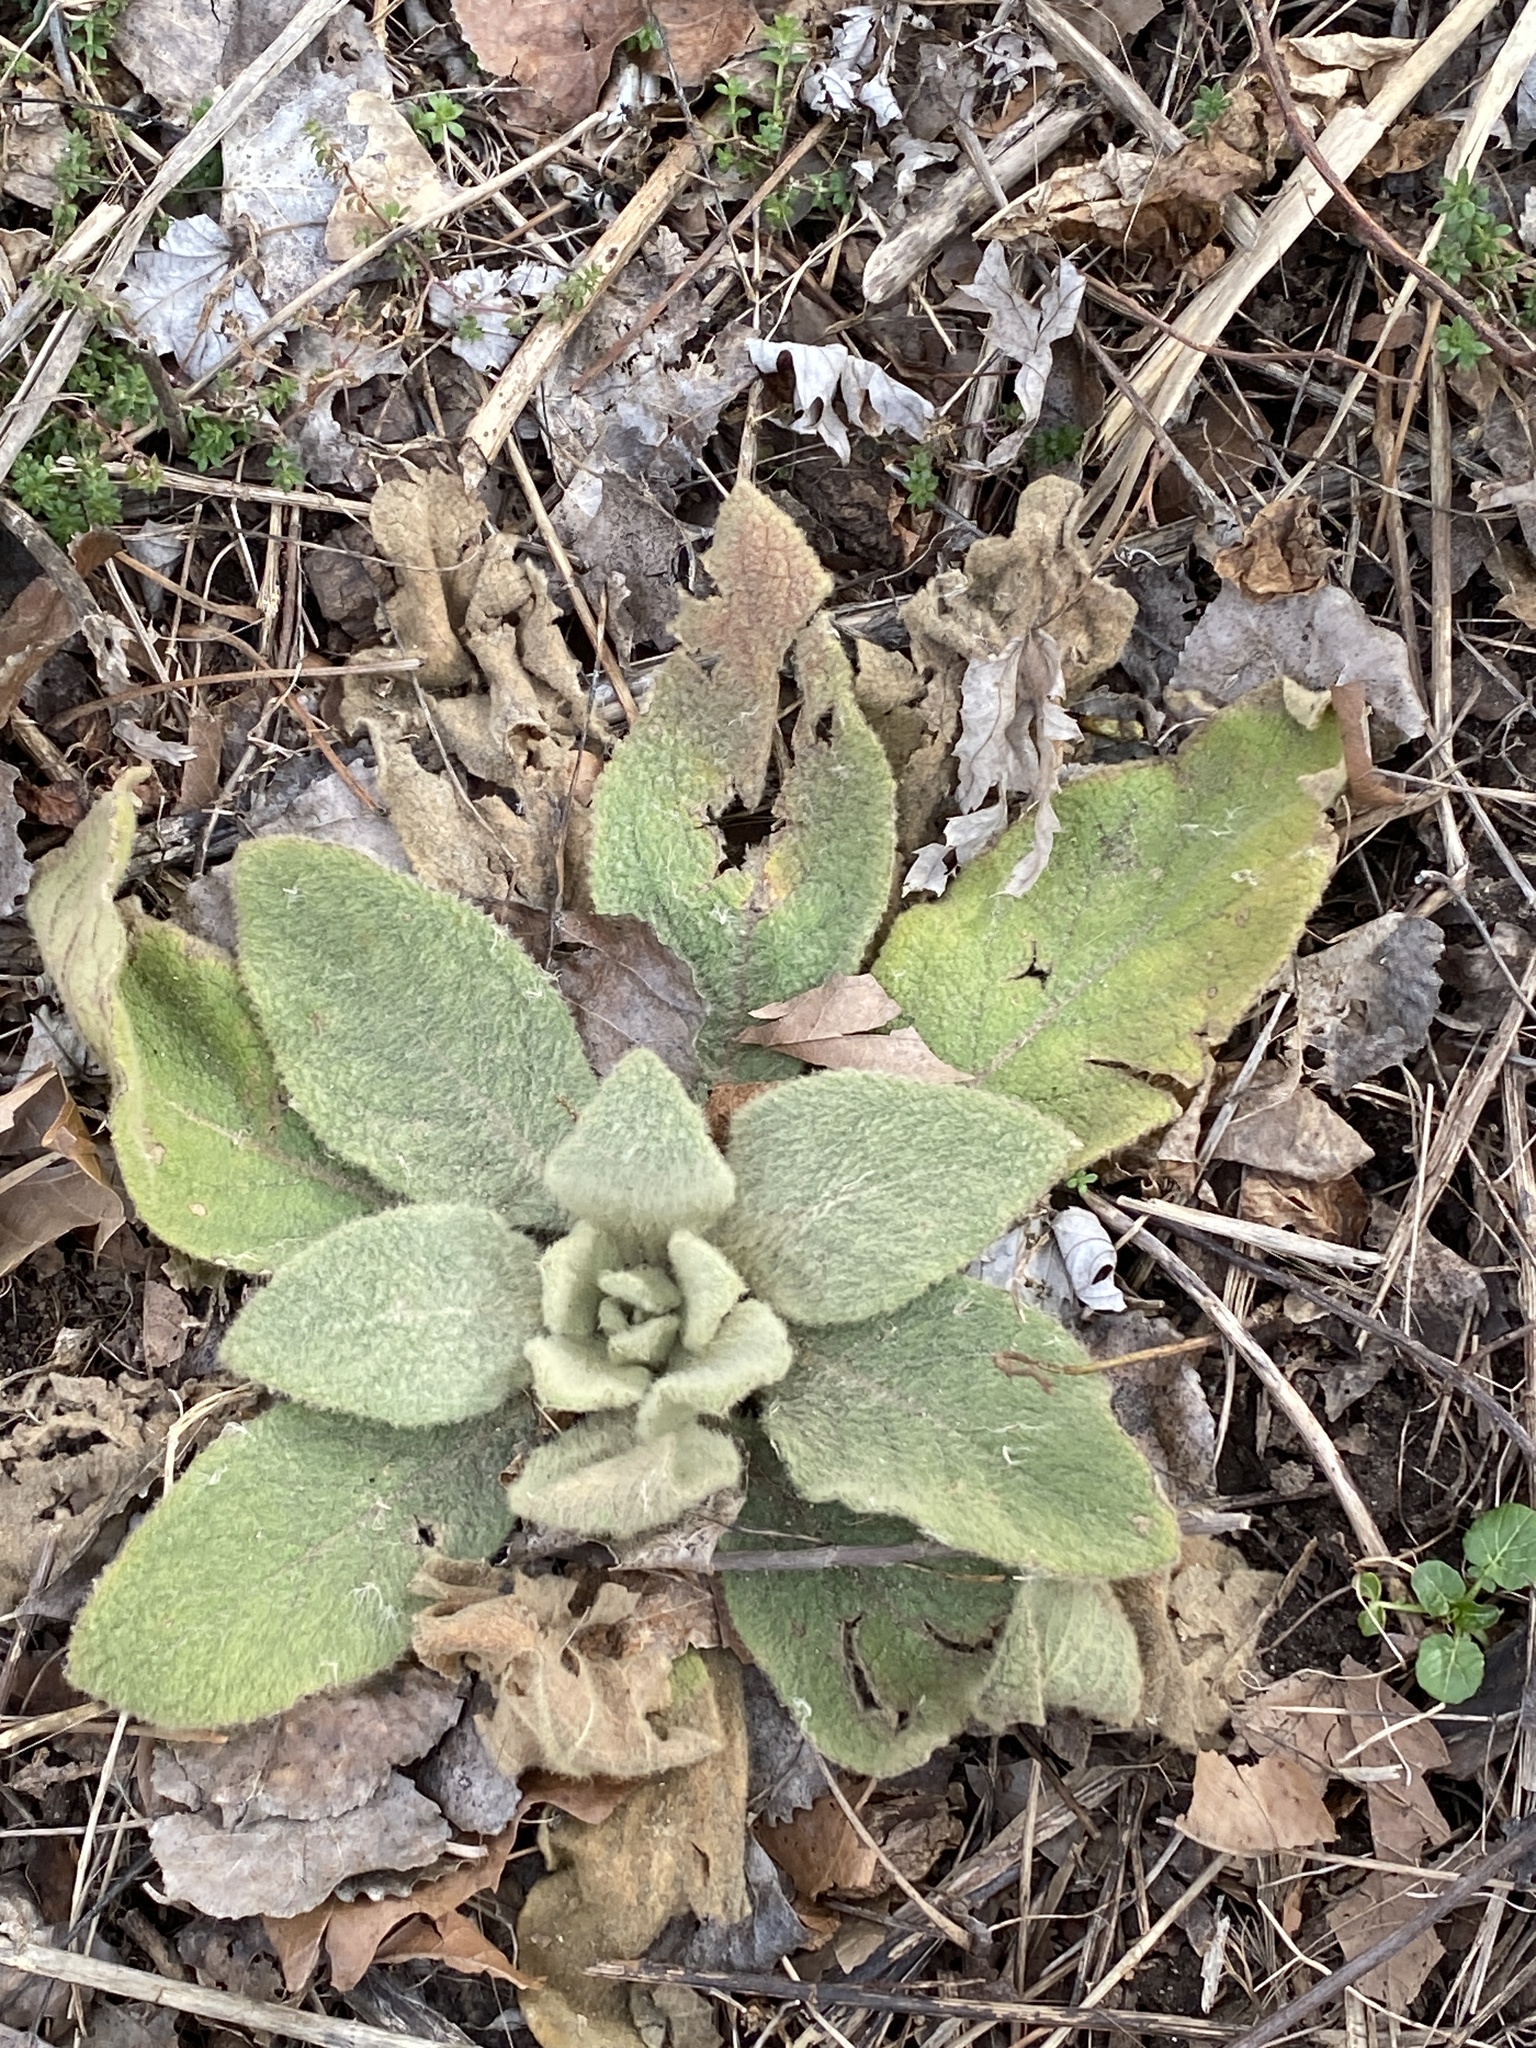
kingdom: Plantae
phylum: Tracheophyta
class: Magnoliopsida
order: Lamiales
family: Scrophulariaceae
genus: Verbascum
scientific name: Verbascum thapsus
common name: Common mullein
